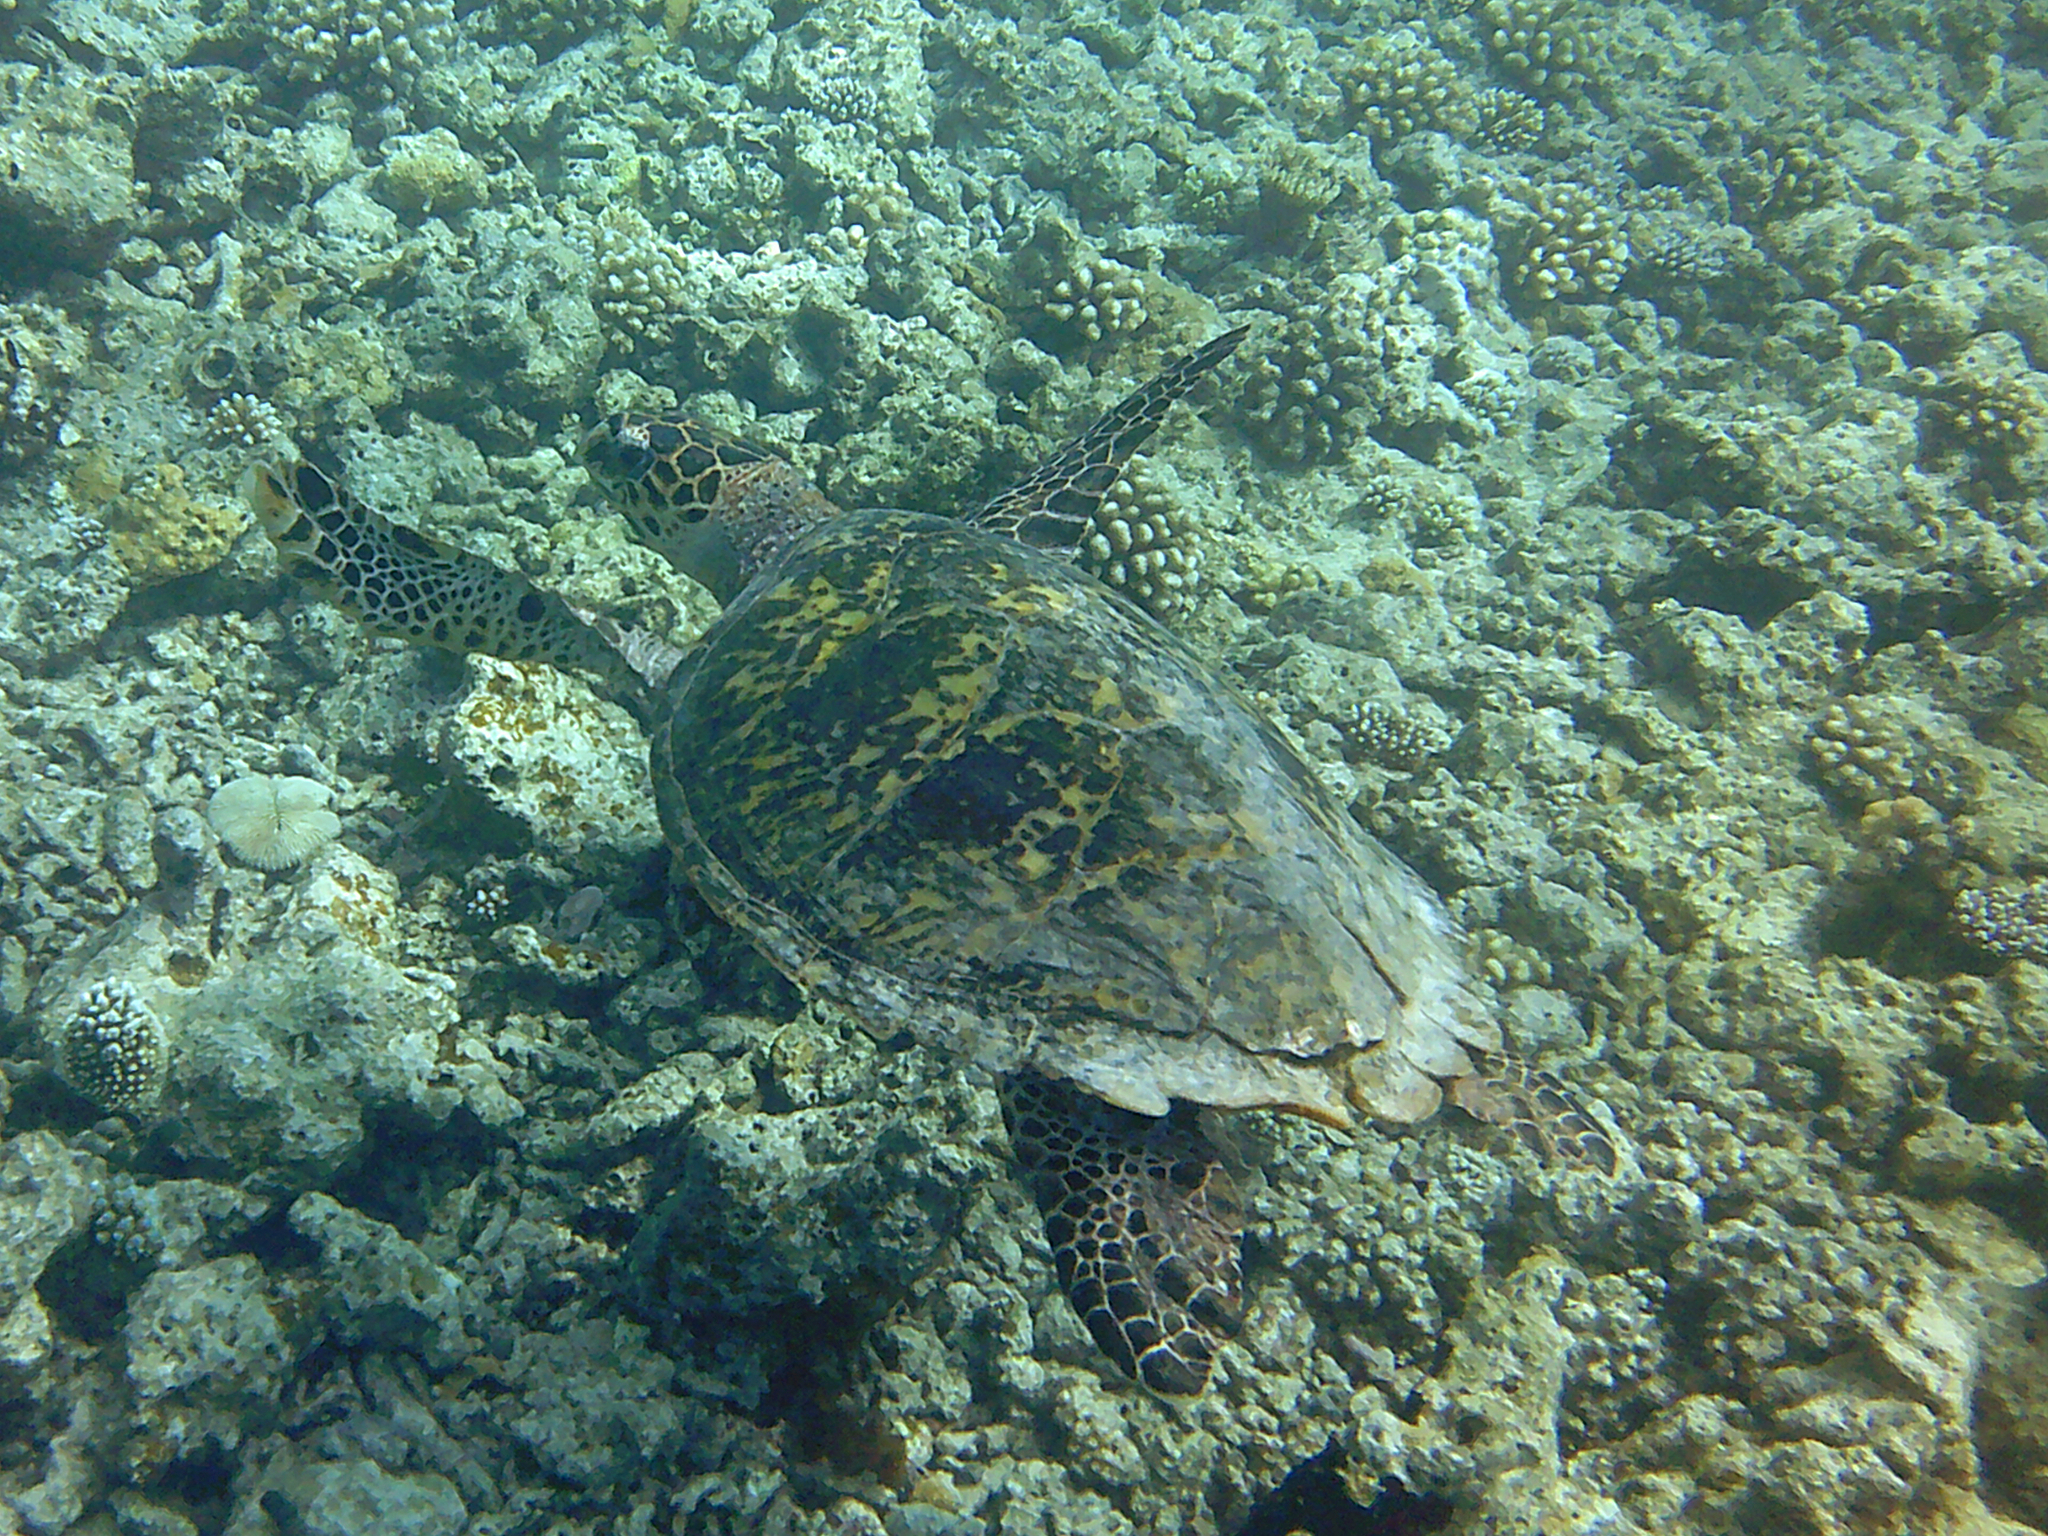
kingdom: Animalia
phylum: Chordata
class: Testudines
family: Cheloniidae
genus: Eretmochelys
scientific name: Eretmochelys imbricata
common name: Hawksbill turtle
